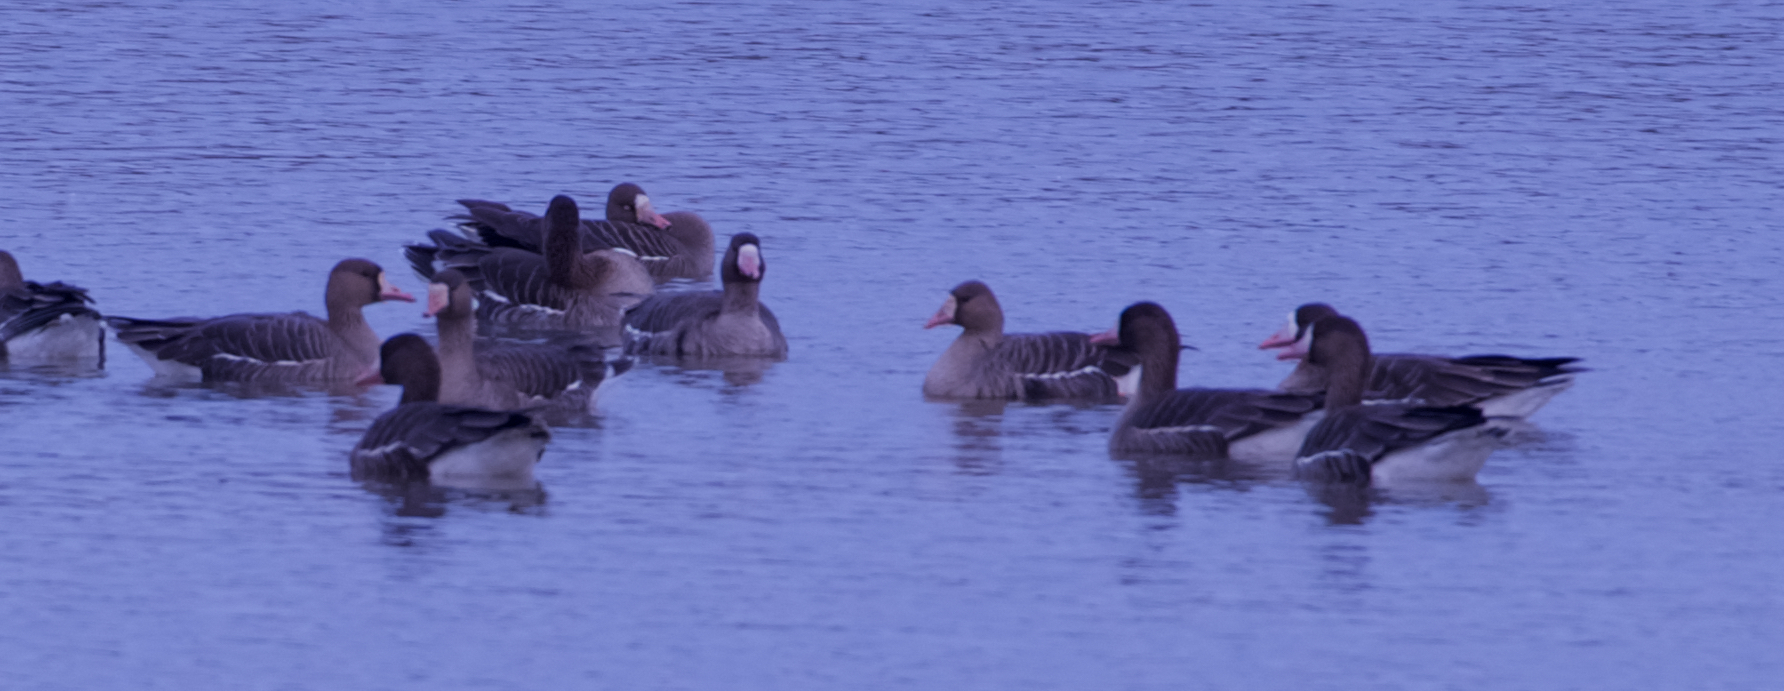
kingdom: Animalia
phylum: Chordata
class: Aves
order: Anseriformes
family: Anatidae
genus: Anser
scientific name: Anser albifrons
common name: Greater white-fronted goose
